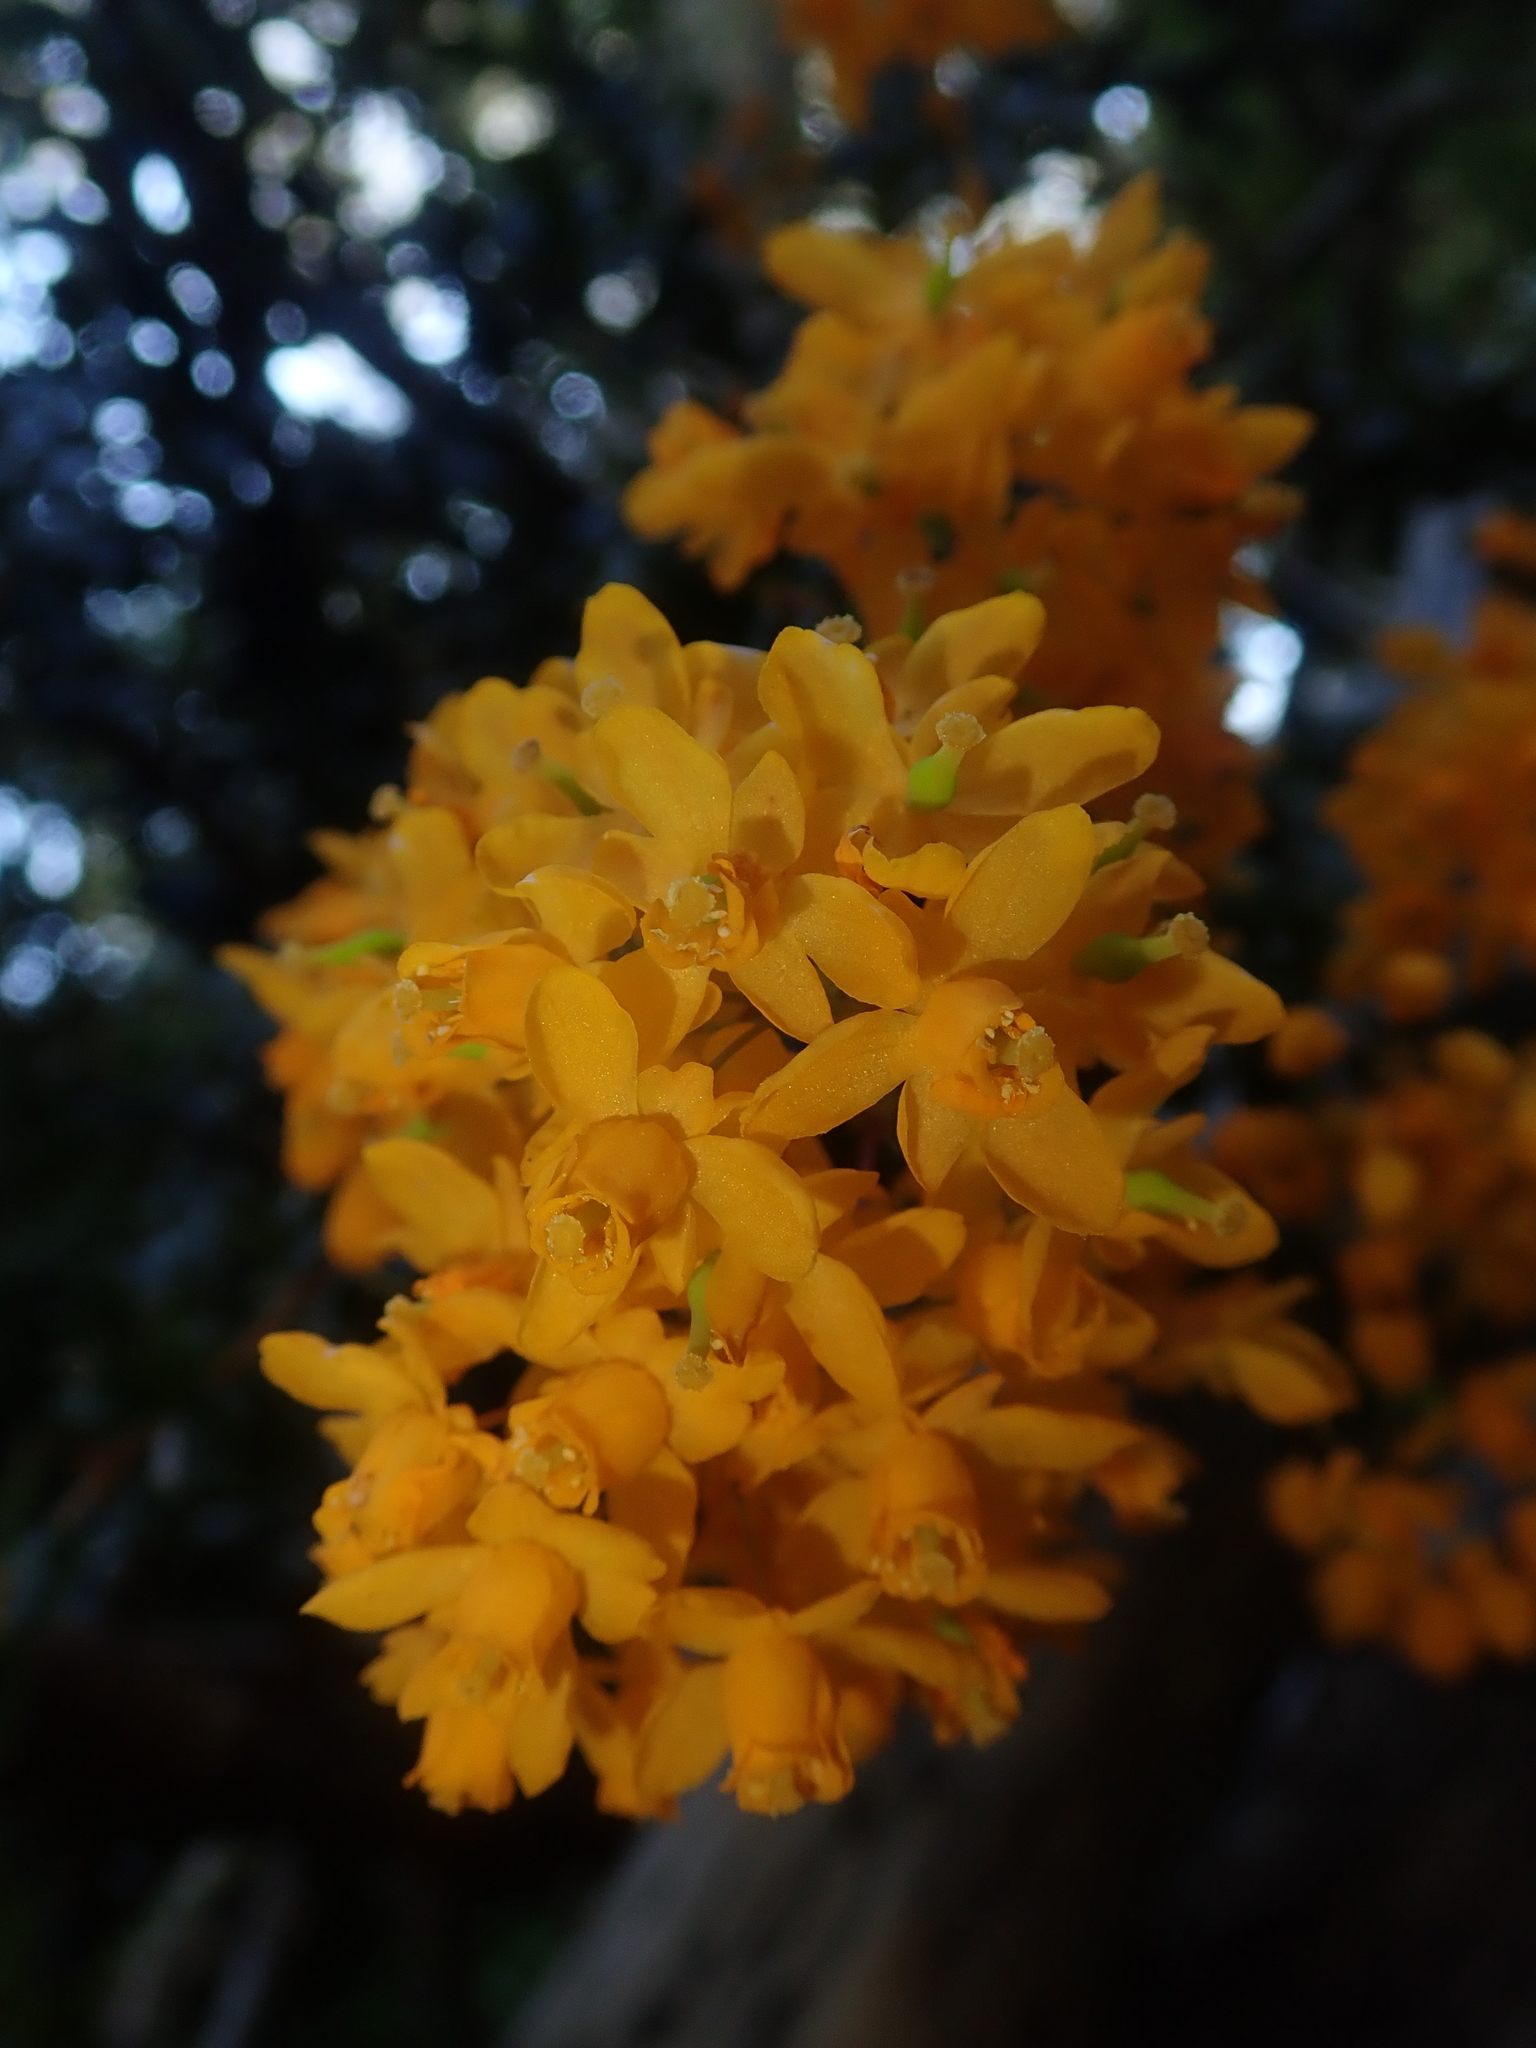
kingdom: Plantae
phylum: Tracheophyta
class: Magnoliopsida
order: Ranunculales
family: Berberidaceae
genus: Berberis
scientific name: Berberis darwinii
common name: Darwin's barberry
